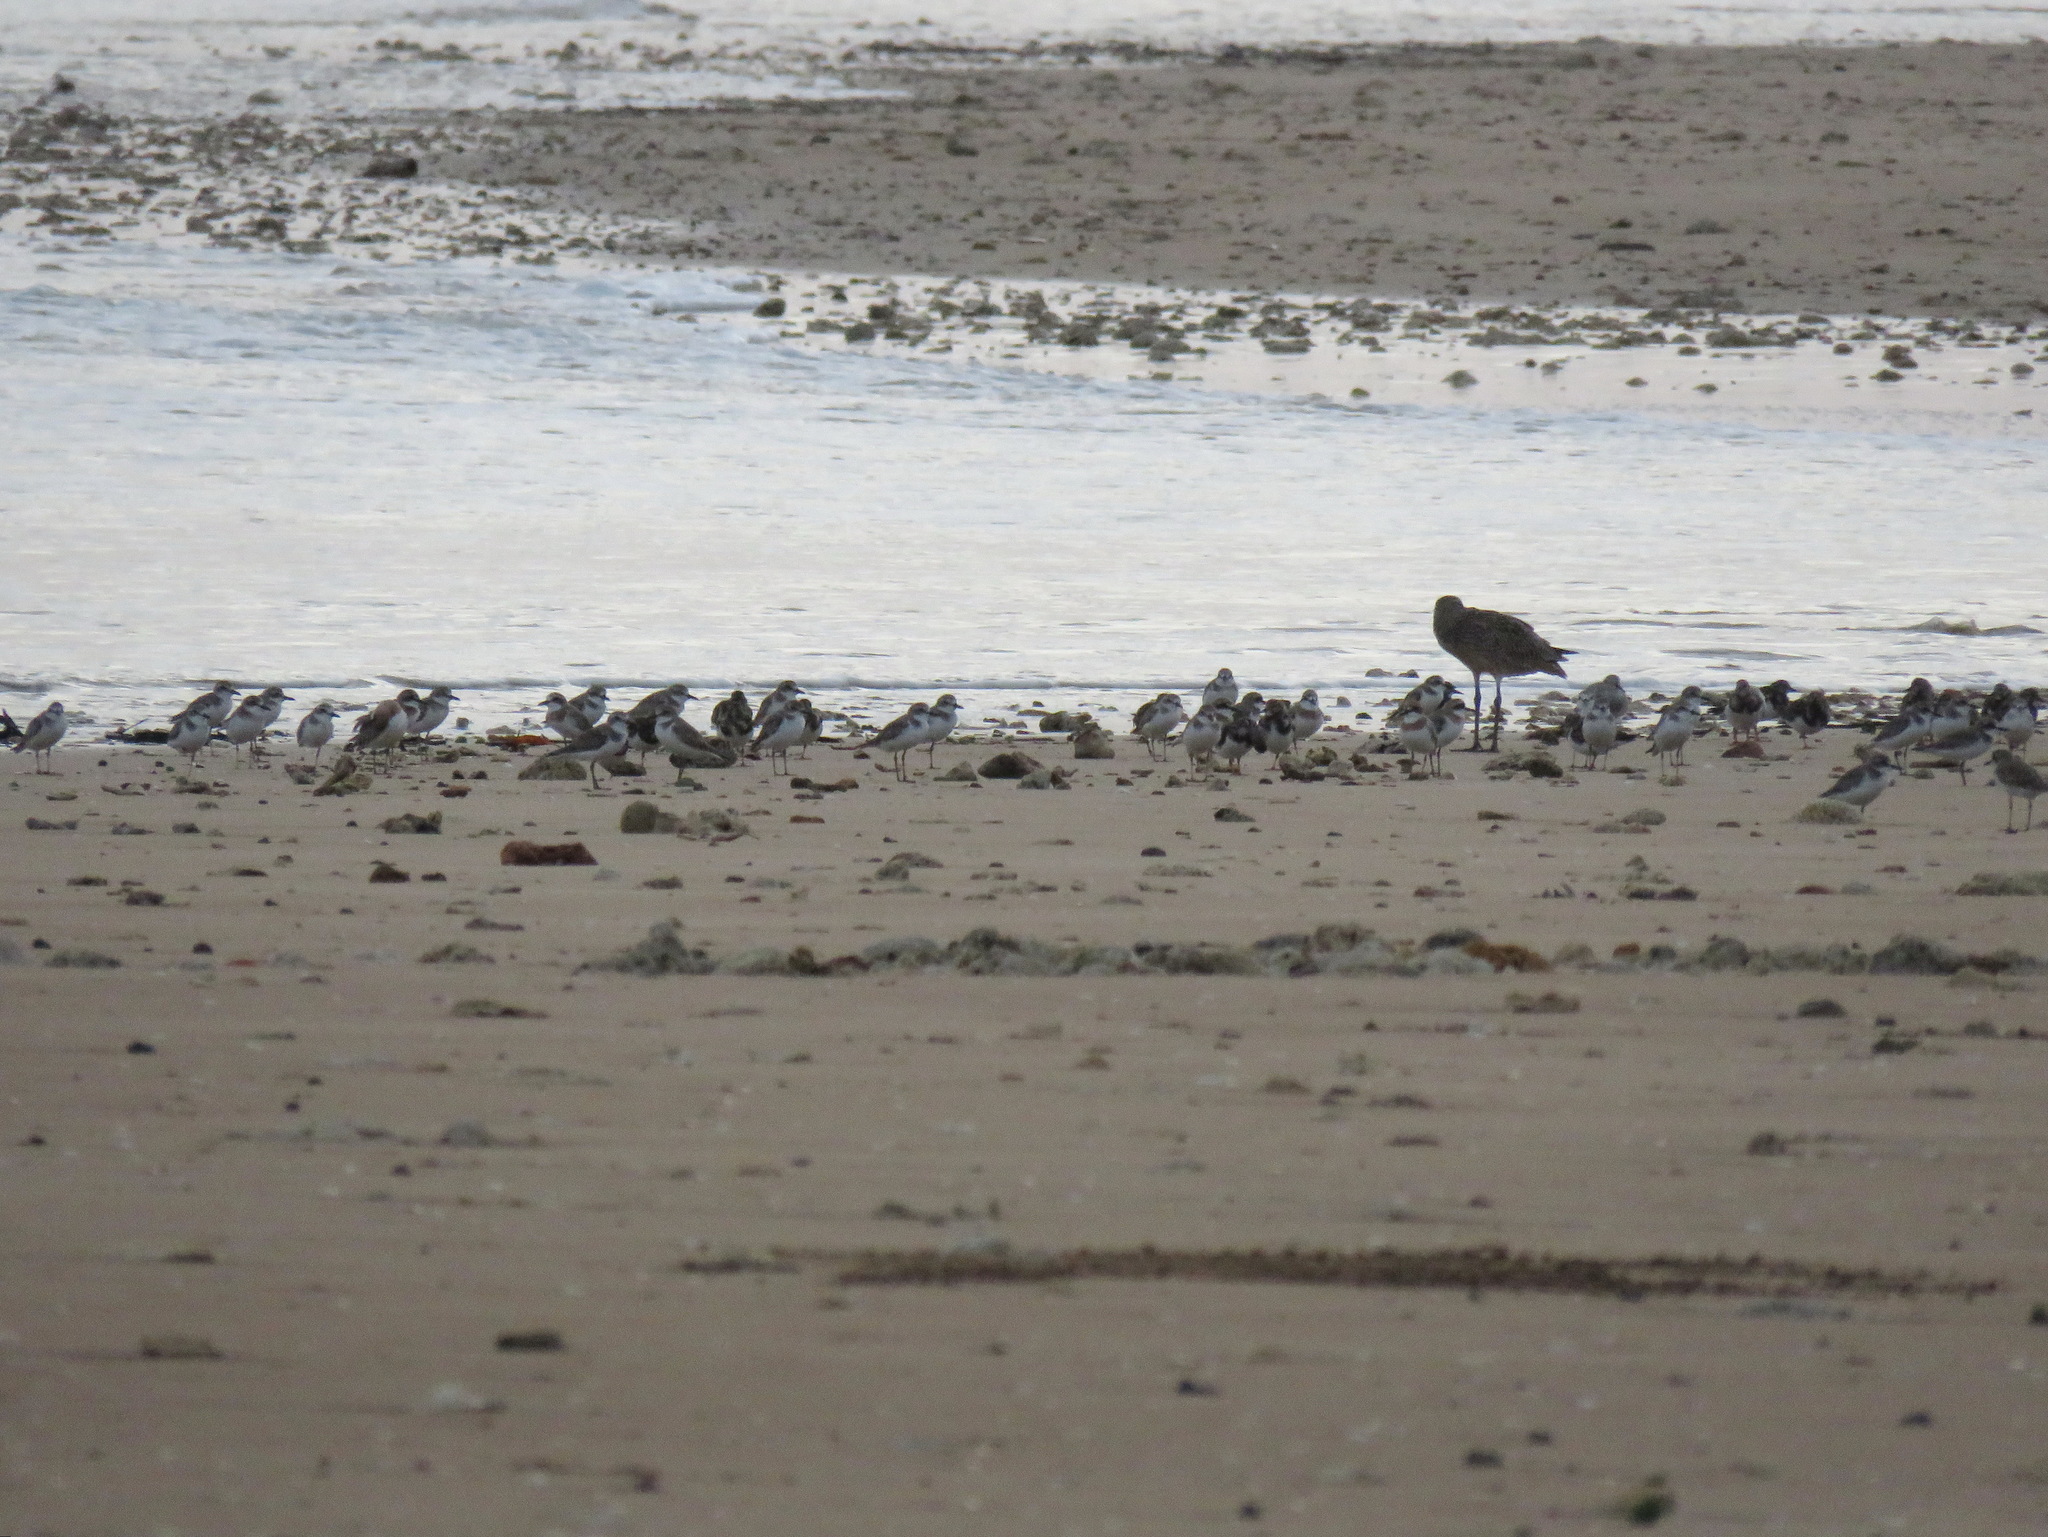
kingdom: Animalia
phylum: Chordata
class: Aves
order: Charadriiformes
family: Scolopacidae
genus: Arenaria
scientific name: Arenaria interpres
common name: Ruddy turnstone
